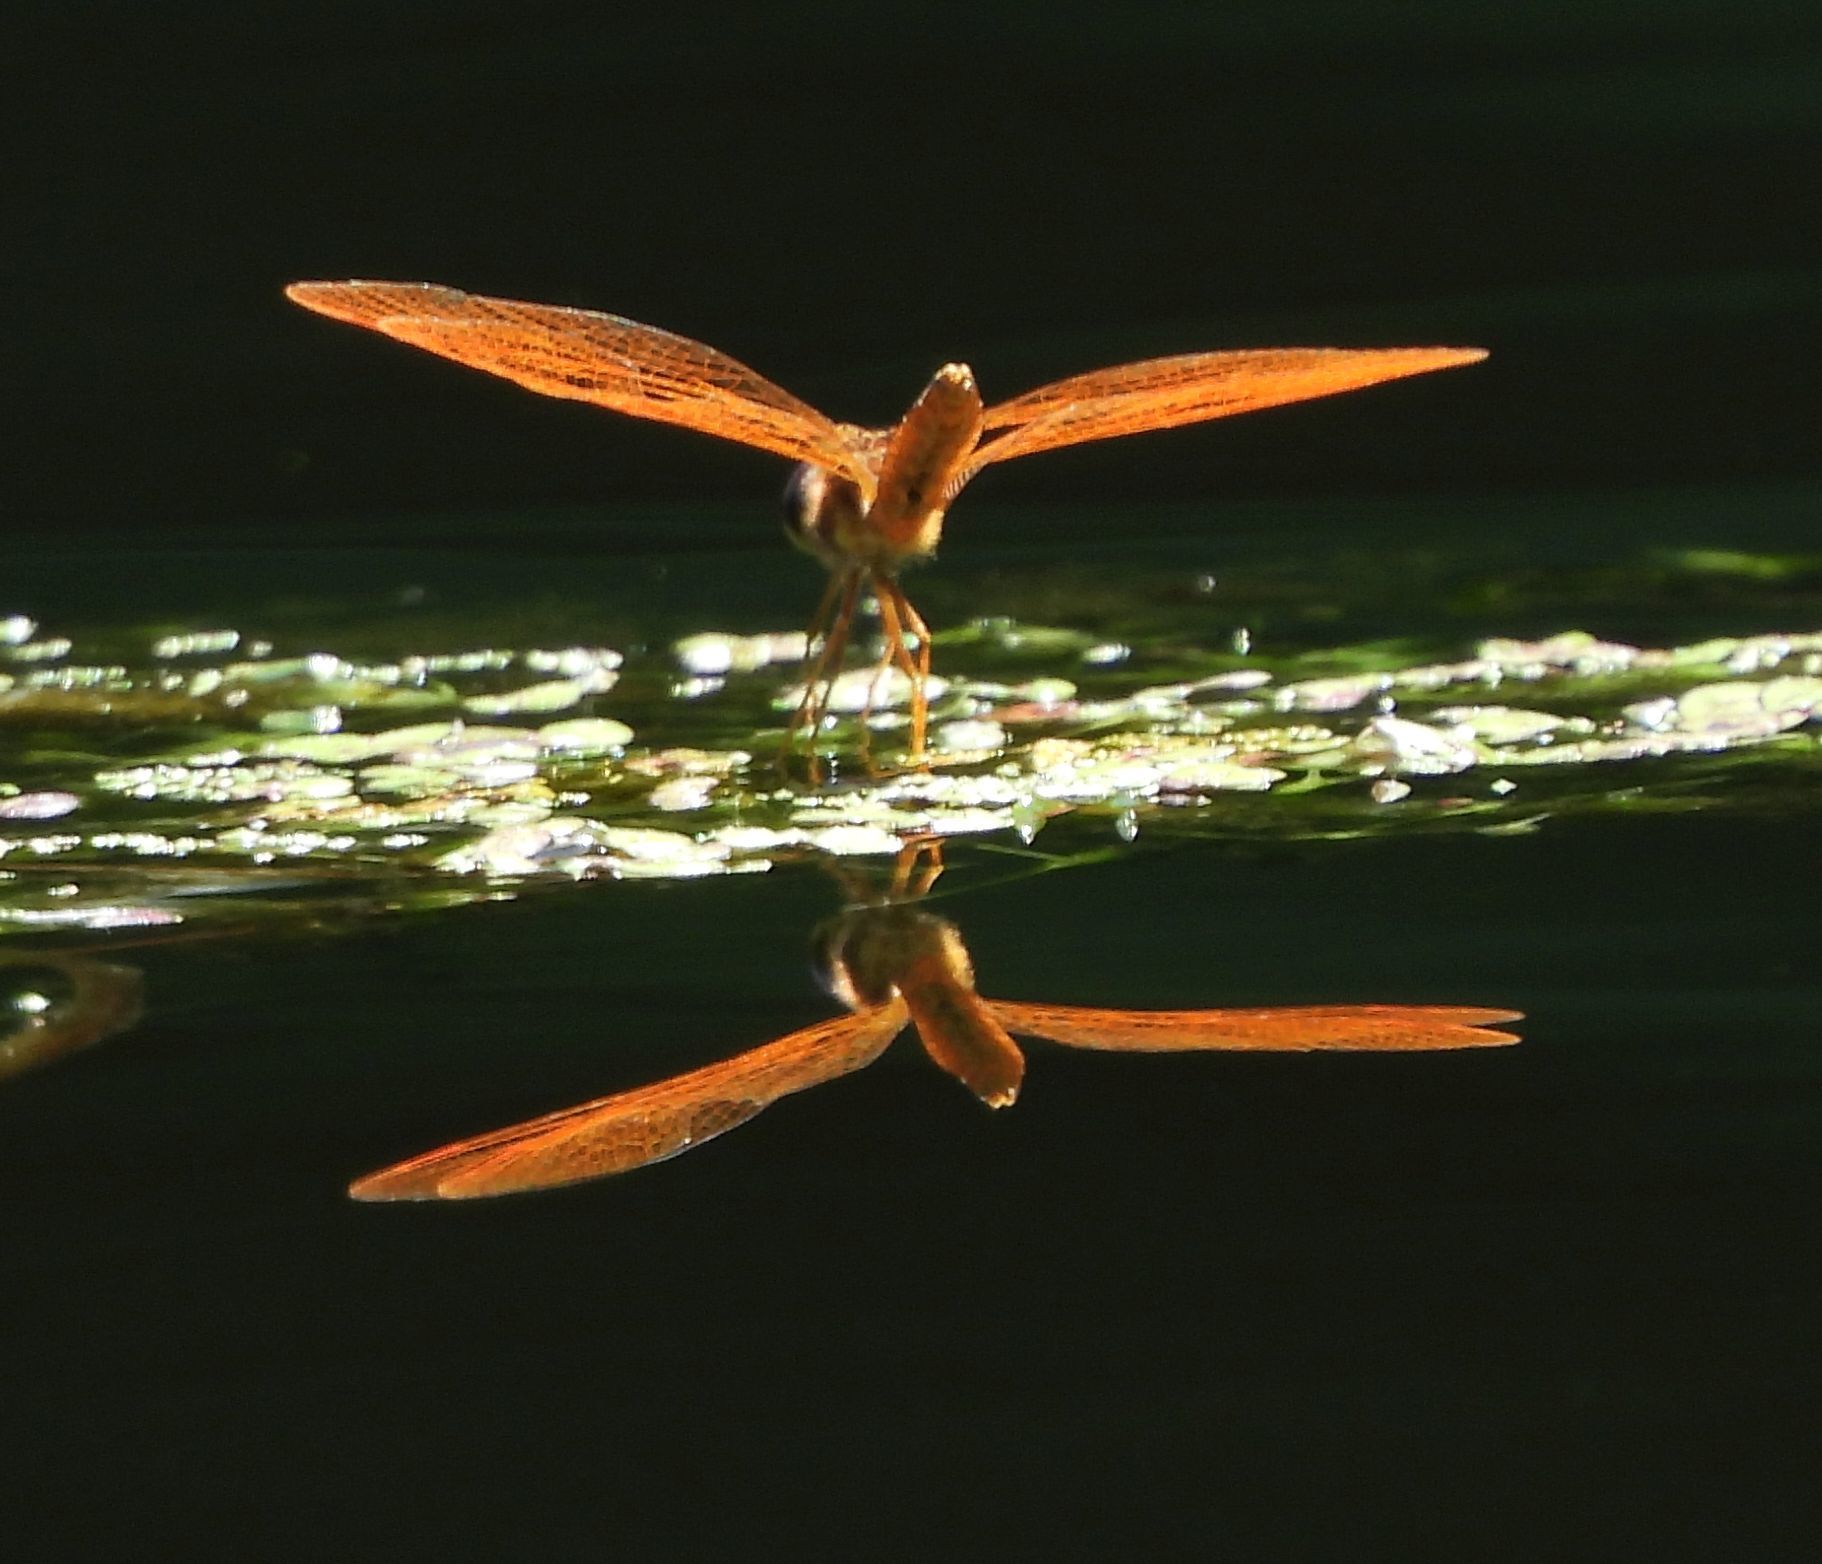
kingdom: Animalia
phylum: Arthropoda
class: Insecta
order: Odonata
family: Libellulidae
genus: Perithemis
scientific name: Perithemis tenera
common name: Eastern amberwing
